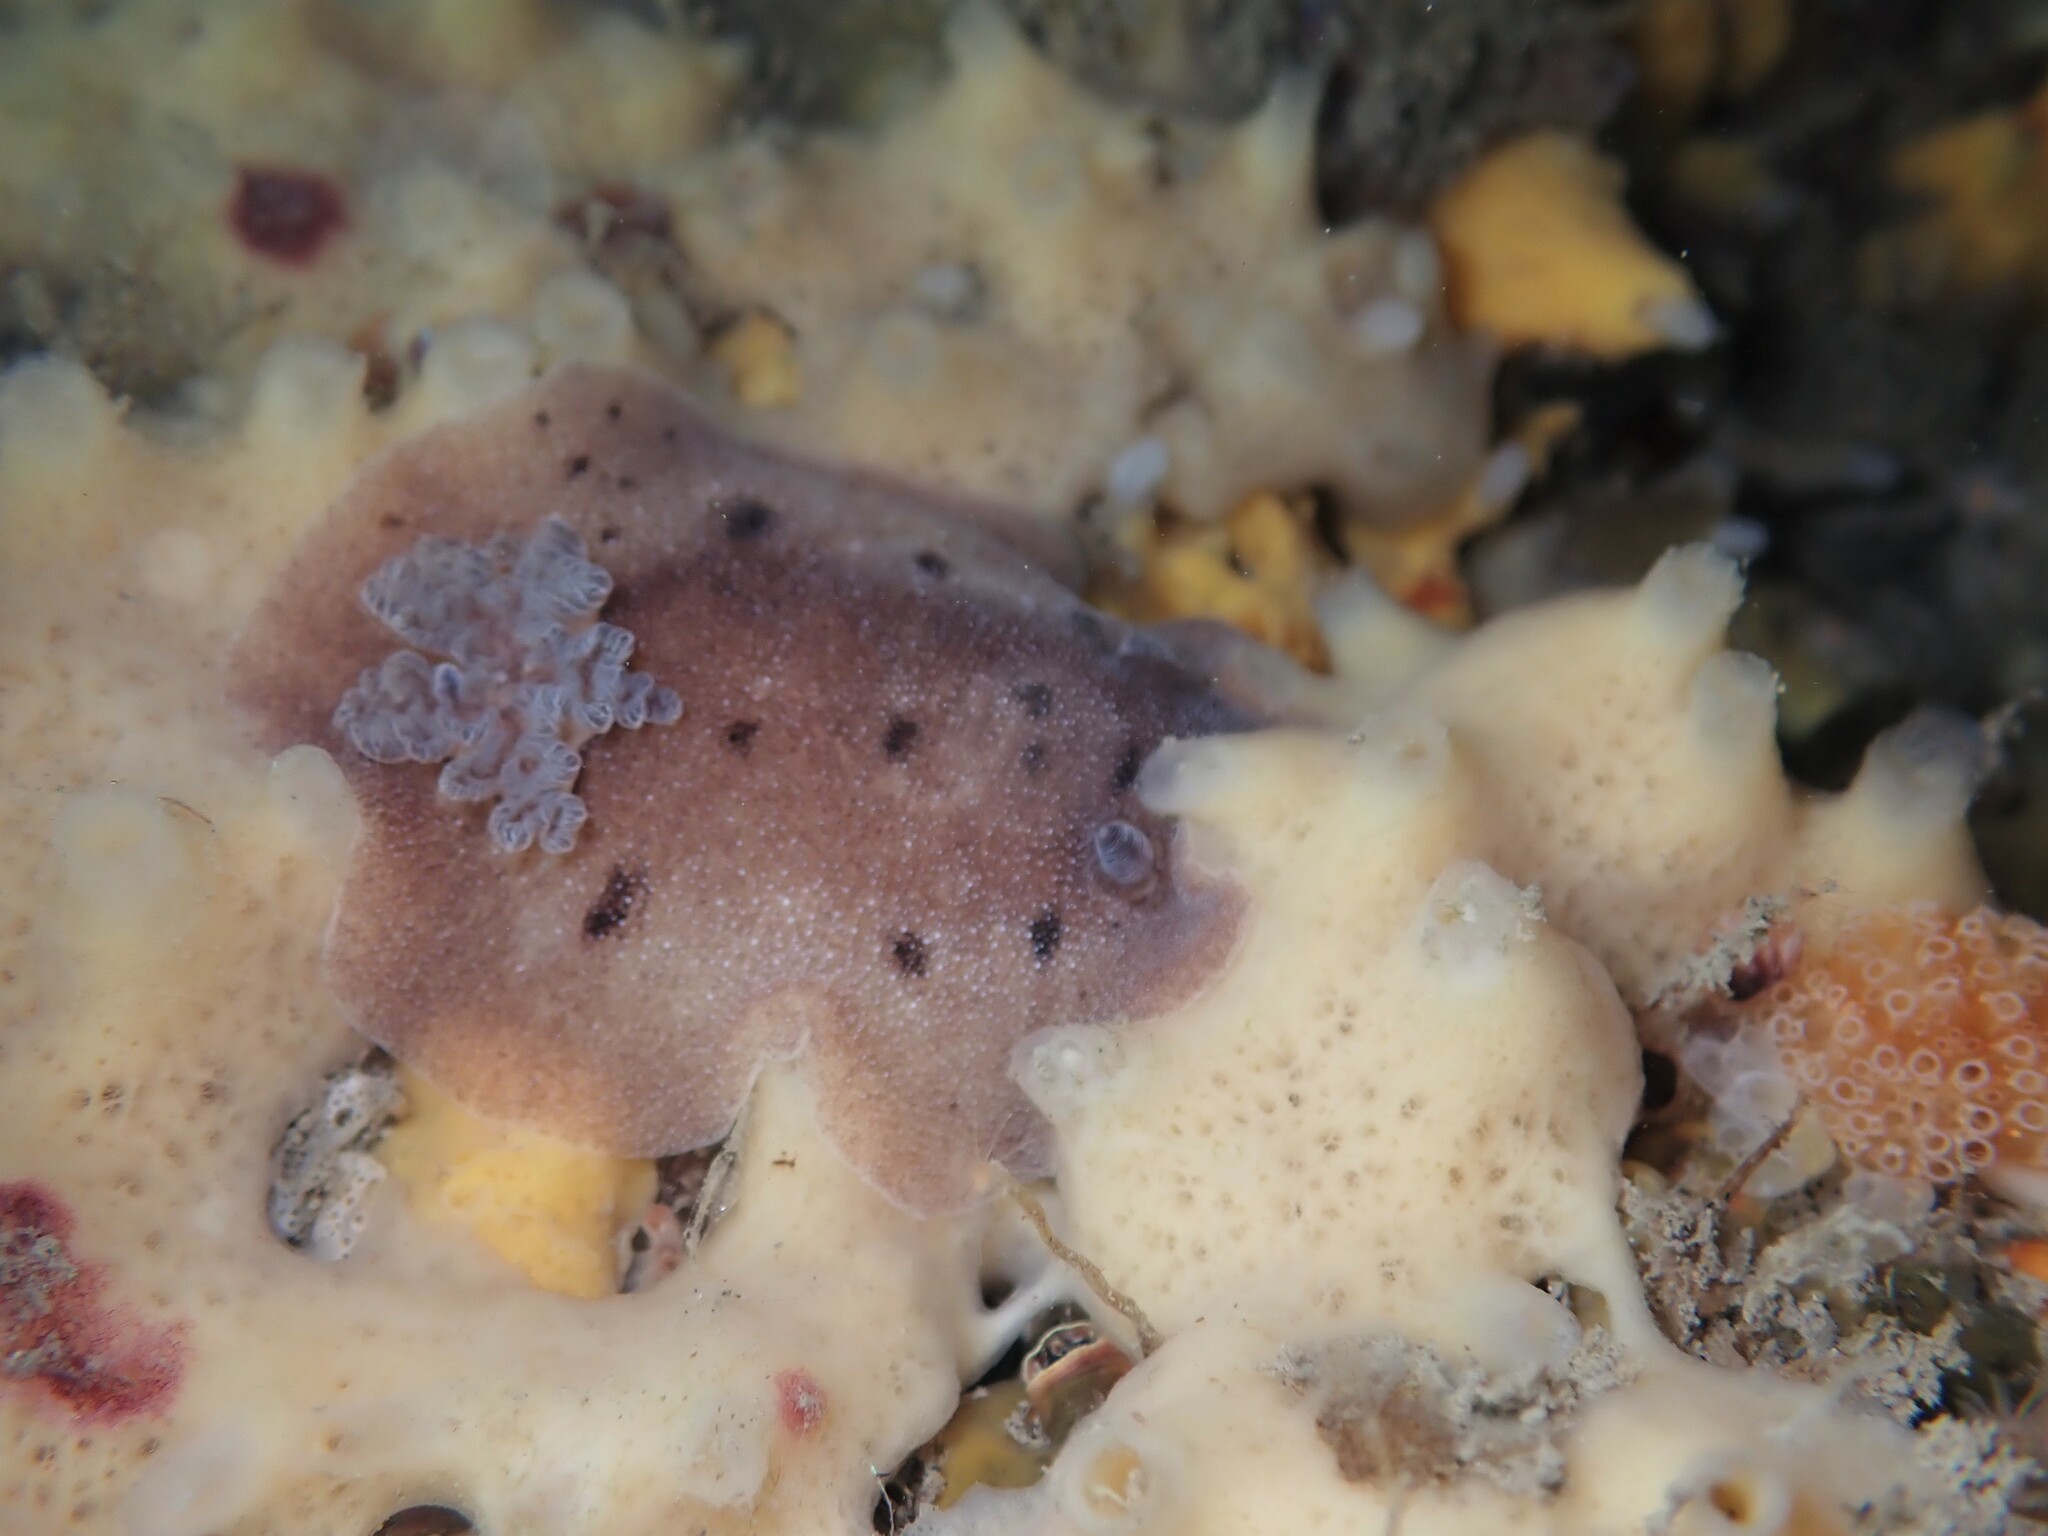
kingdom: Animalia
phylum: Mollusca
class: Gastropoda
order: Nudibranchia
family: Discodorididae
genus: Alloiodoris
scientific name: Alloiodoris lanuginata
